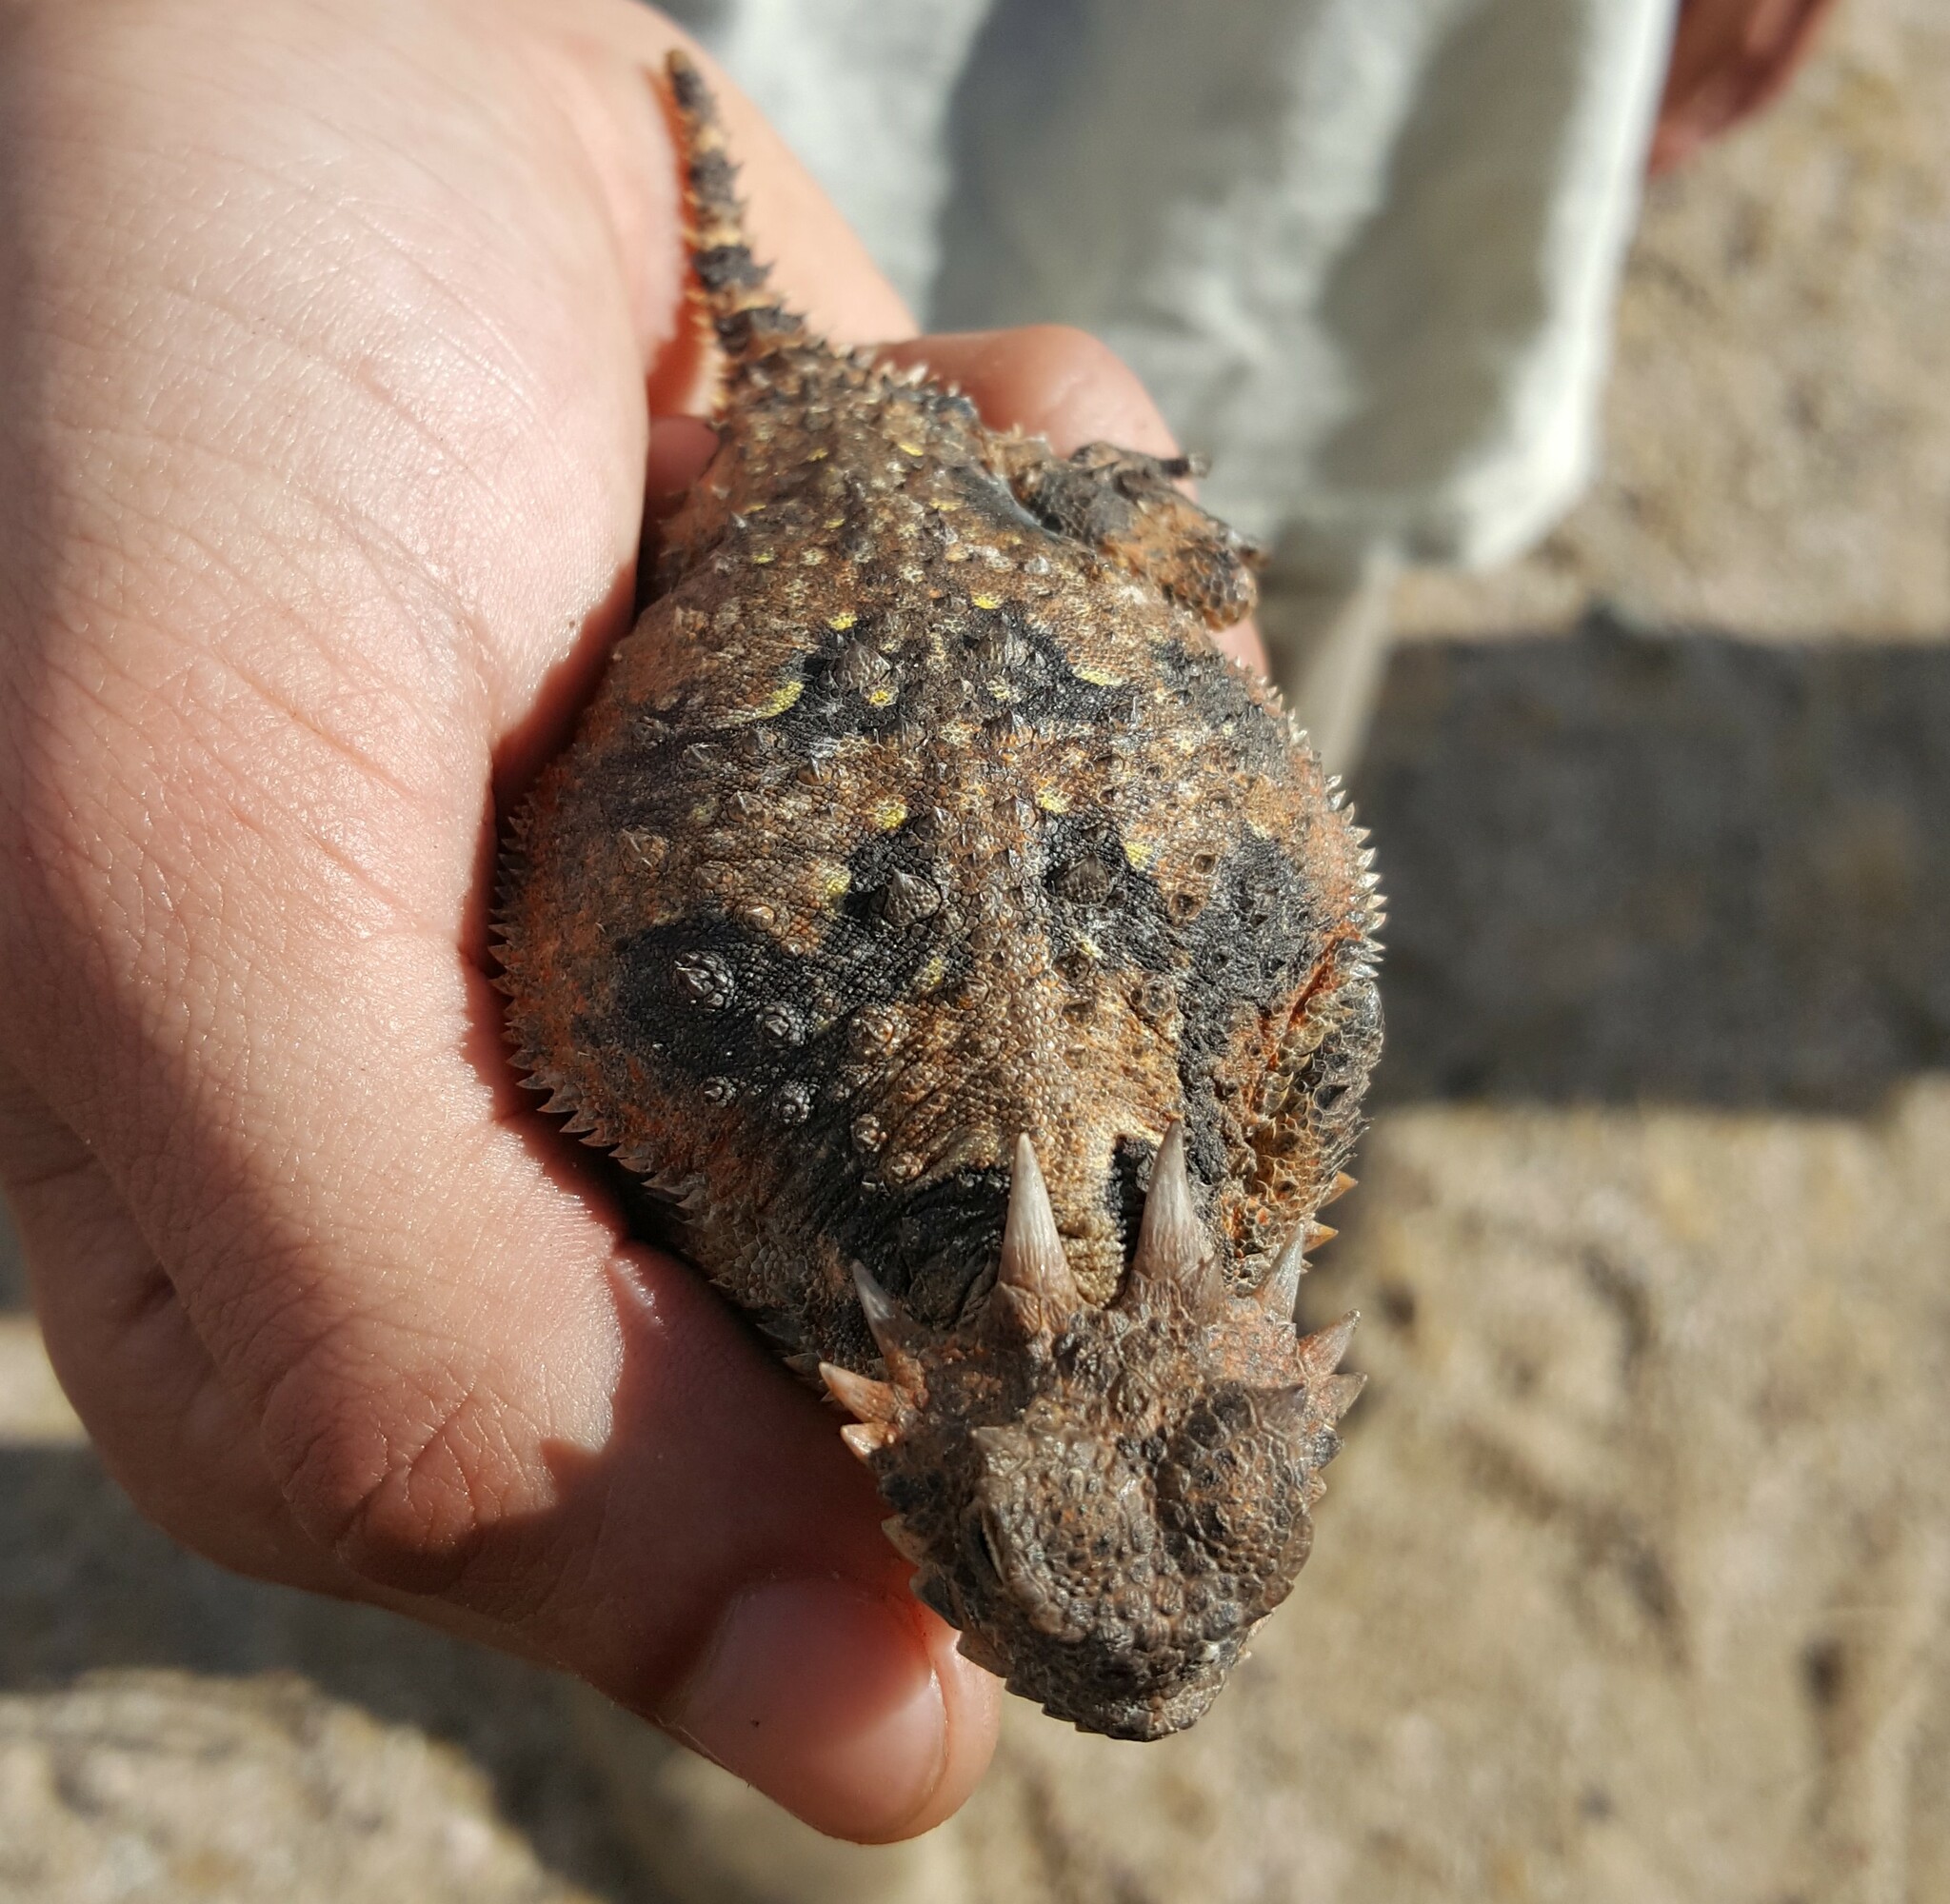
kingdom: Animalia
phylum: Chordata
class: Squamata
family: Phrynosomatidae
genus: Phrynosoma
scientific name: Phrynosoma platyrhinos
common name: Desert horned lizard
